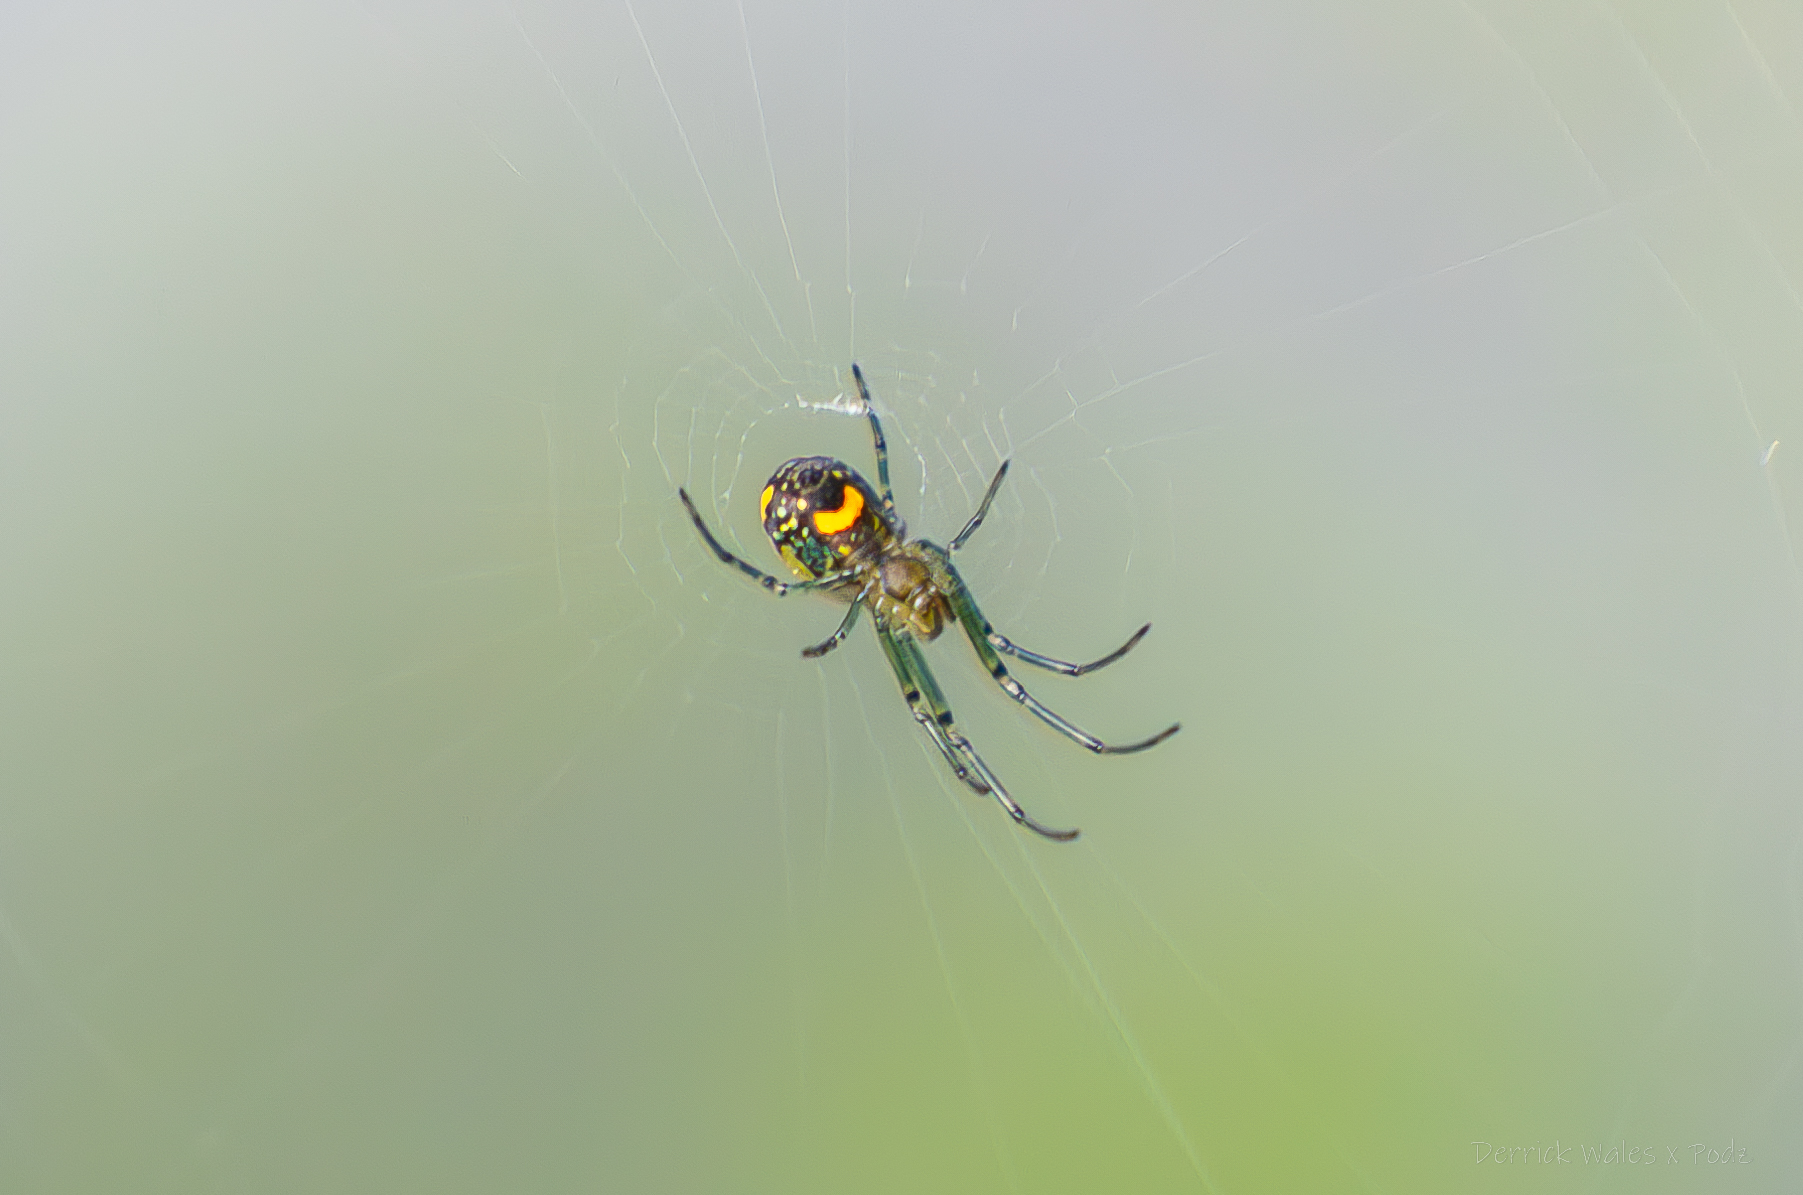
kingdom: Animalia
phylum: Arthropoda
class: Arachnida
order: Araneae
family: Tetragnathidae
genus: Leucauge
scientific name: Leucauge venusta
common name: Longjawed orb weavers
